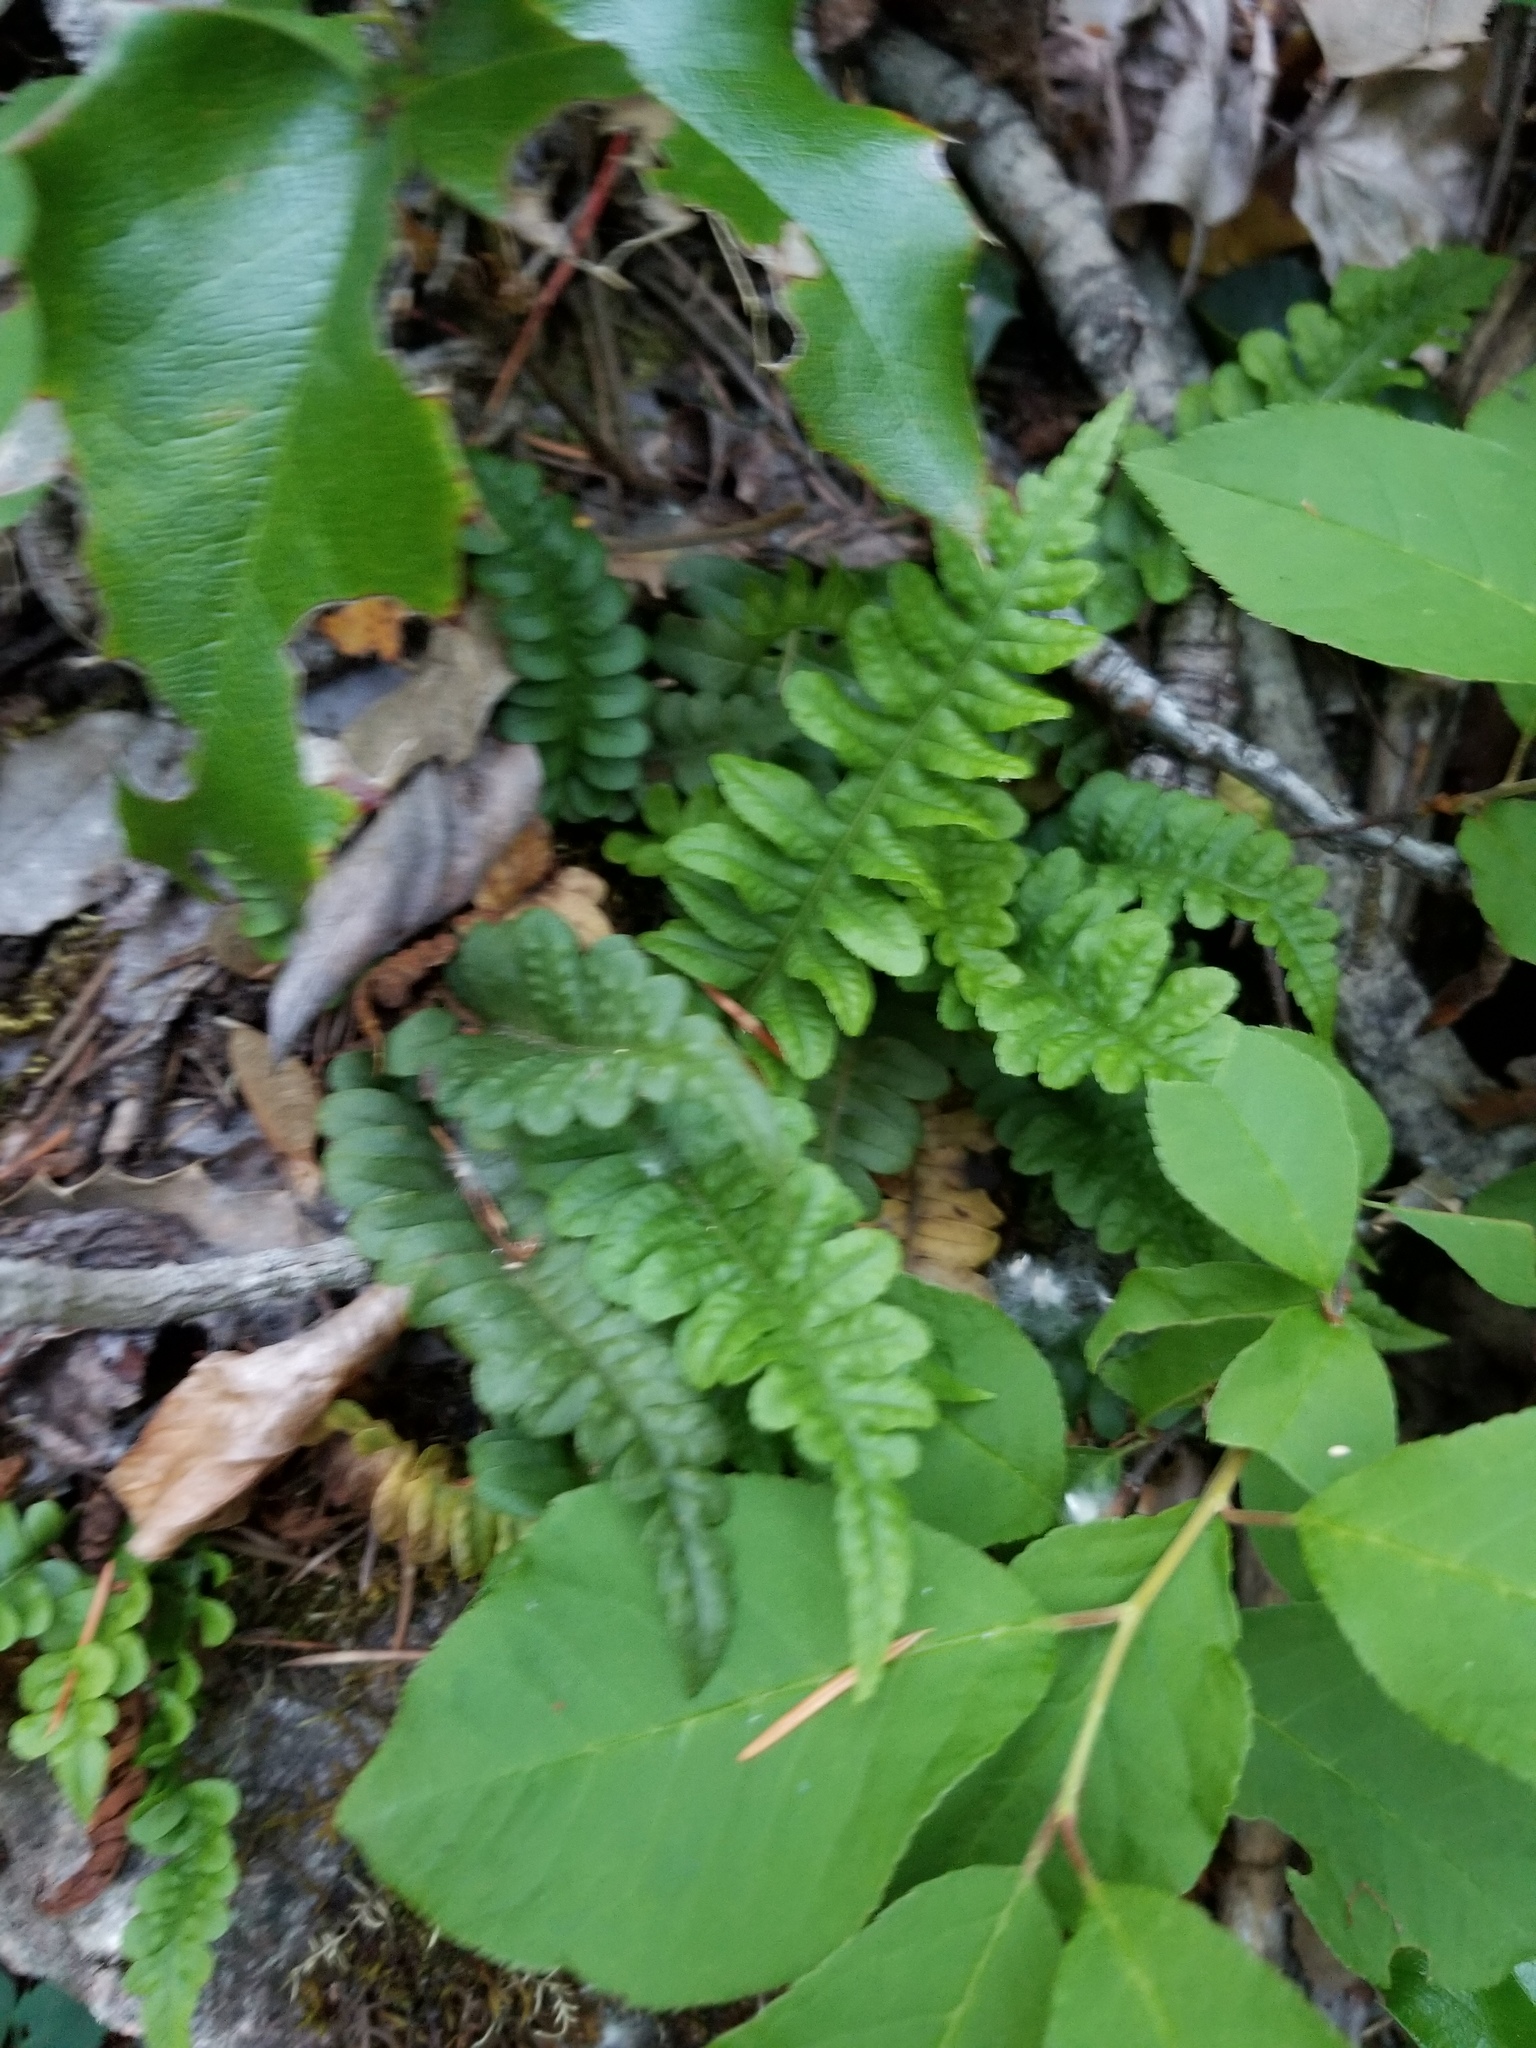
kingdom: Plantae
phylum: Tracheophyta
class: Polypodiopsida
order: Polypodiales
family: Polypodiaceae
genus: Polypodium
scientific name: Polypodium hesperium
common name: Western polypody
